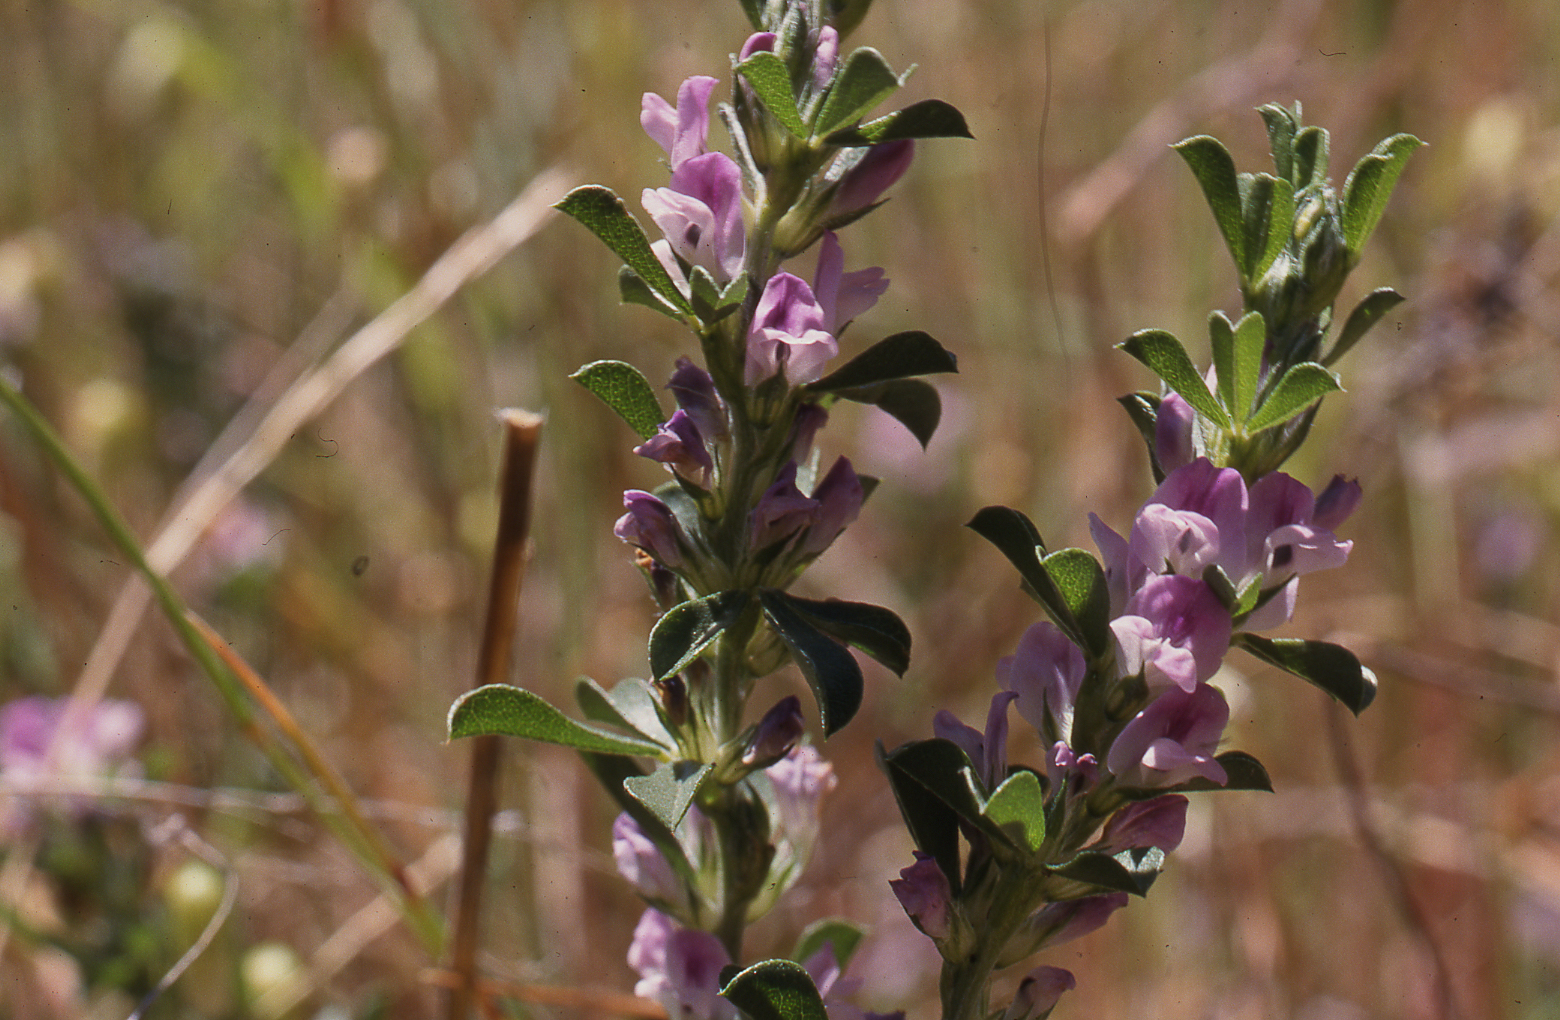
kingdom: Plantae
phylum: Tracheophyta
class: Magnoliopsida
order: Fabales
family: Fabaceae
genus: Psoralea
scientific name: Psoralea
